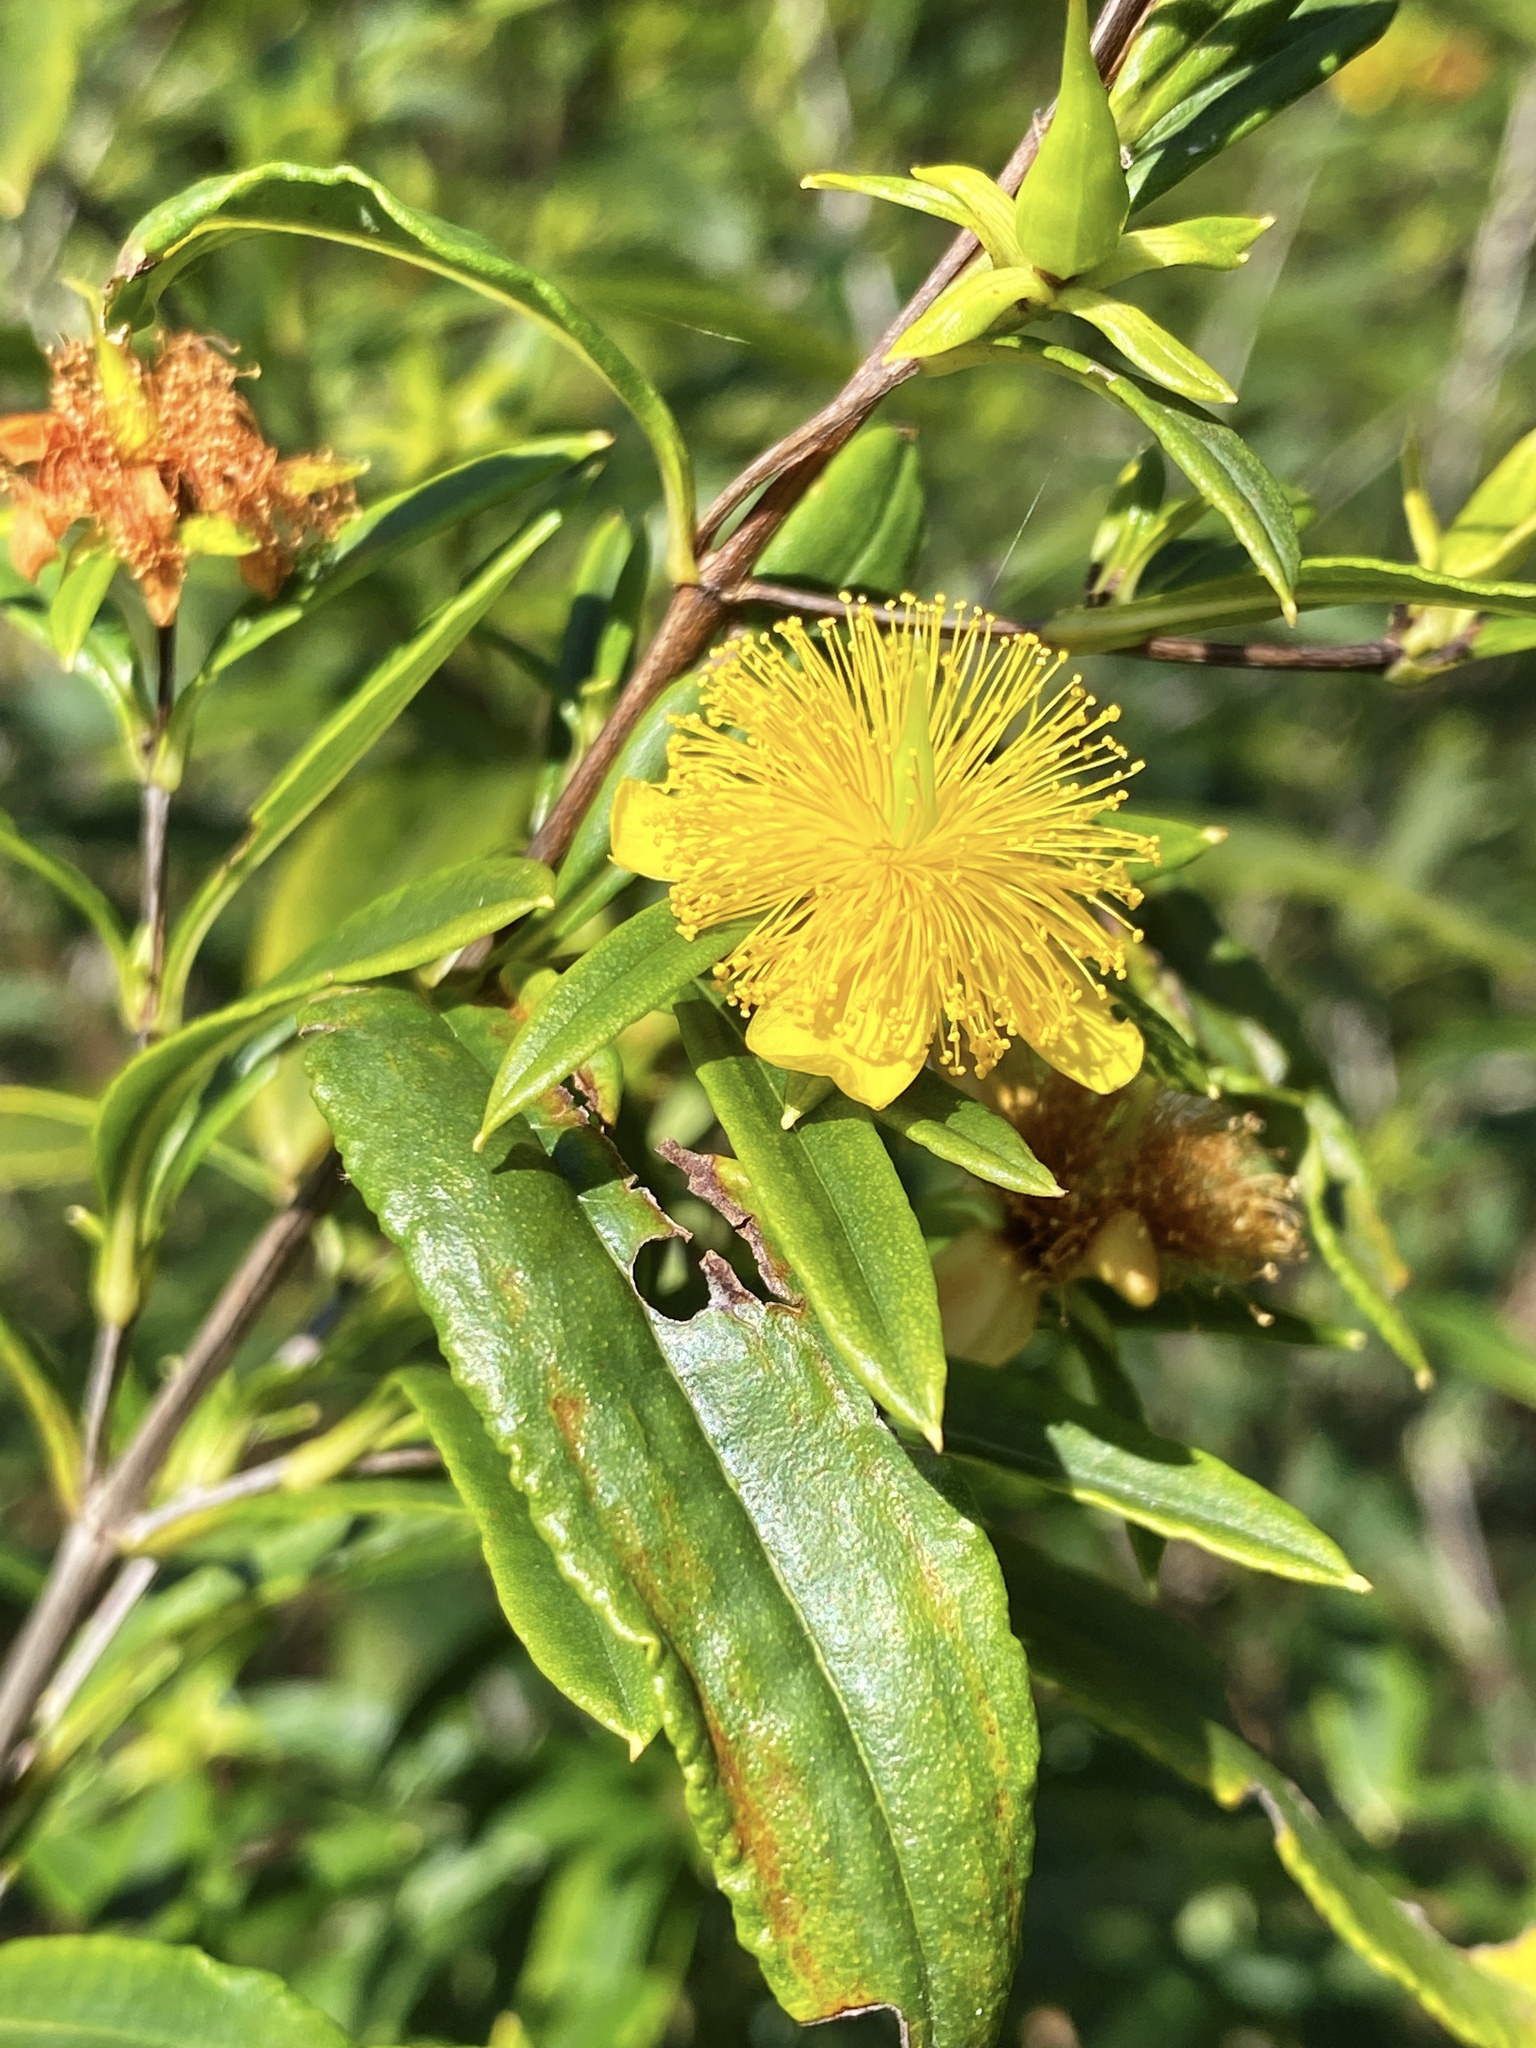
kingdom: Plantae
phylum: Tracheophyta
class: Magnoliopsida
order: Malpighiales
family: Hypericaceae
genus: Hypericum
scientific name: Hypericum prolificum
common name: Shrubby st. john's-wort
